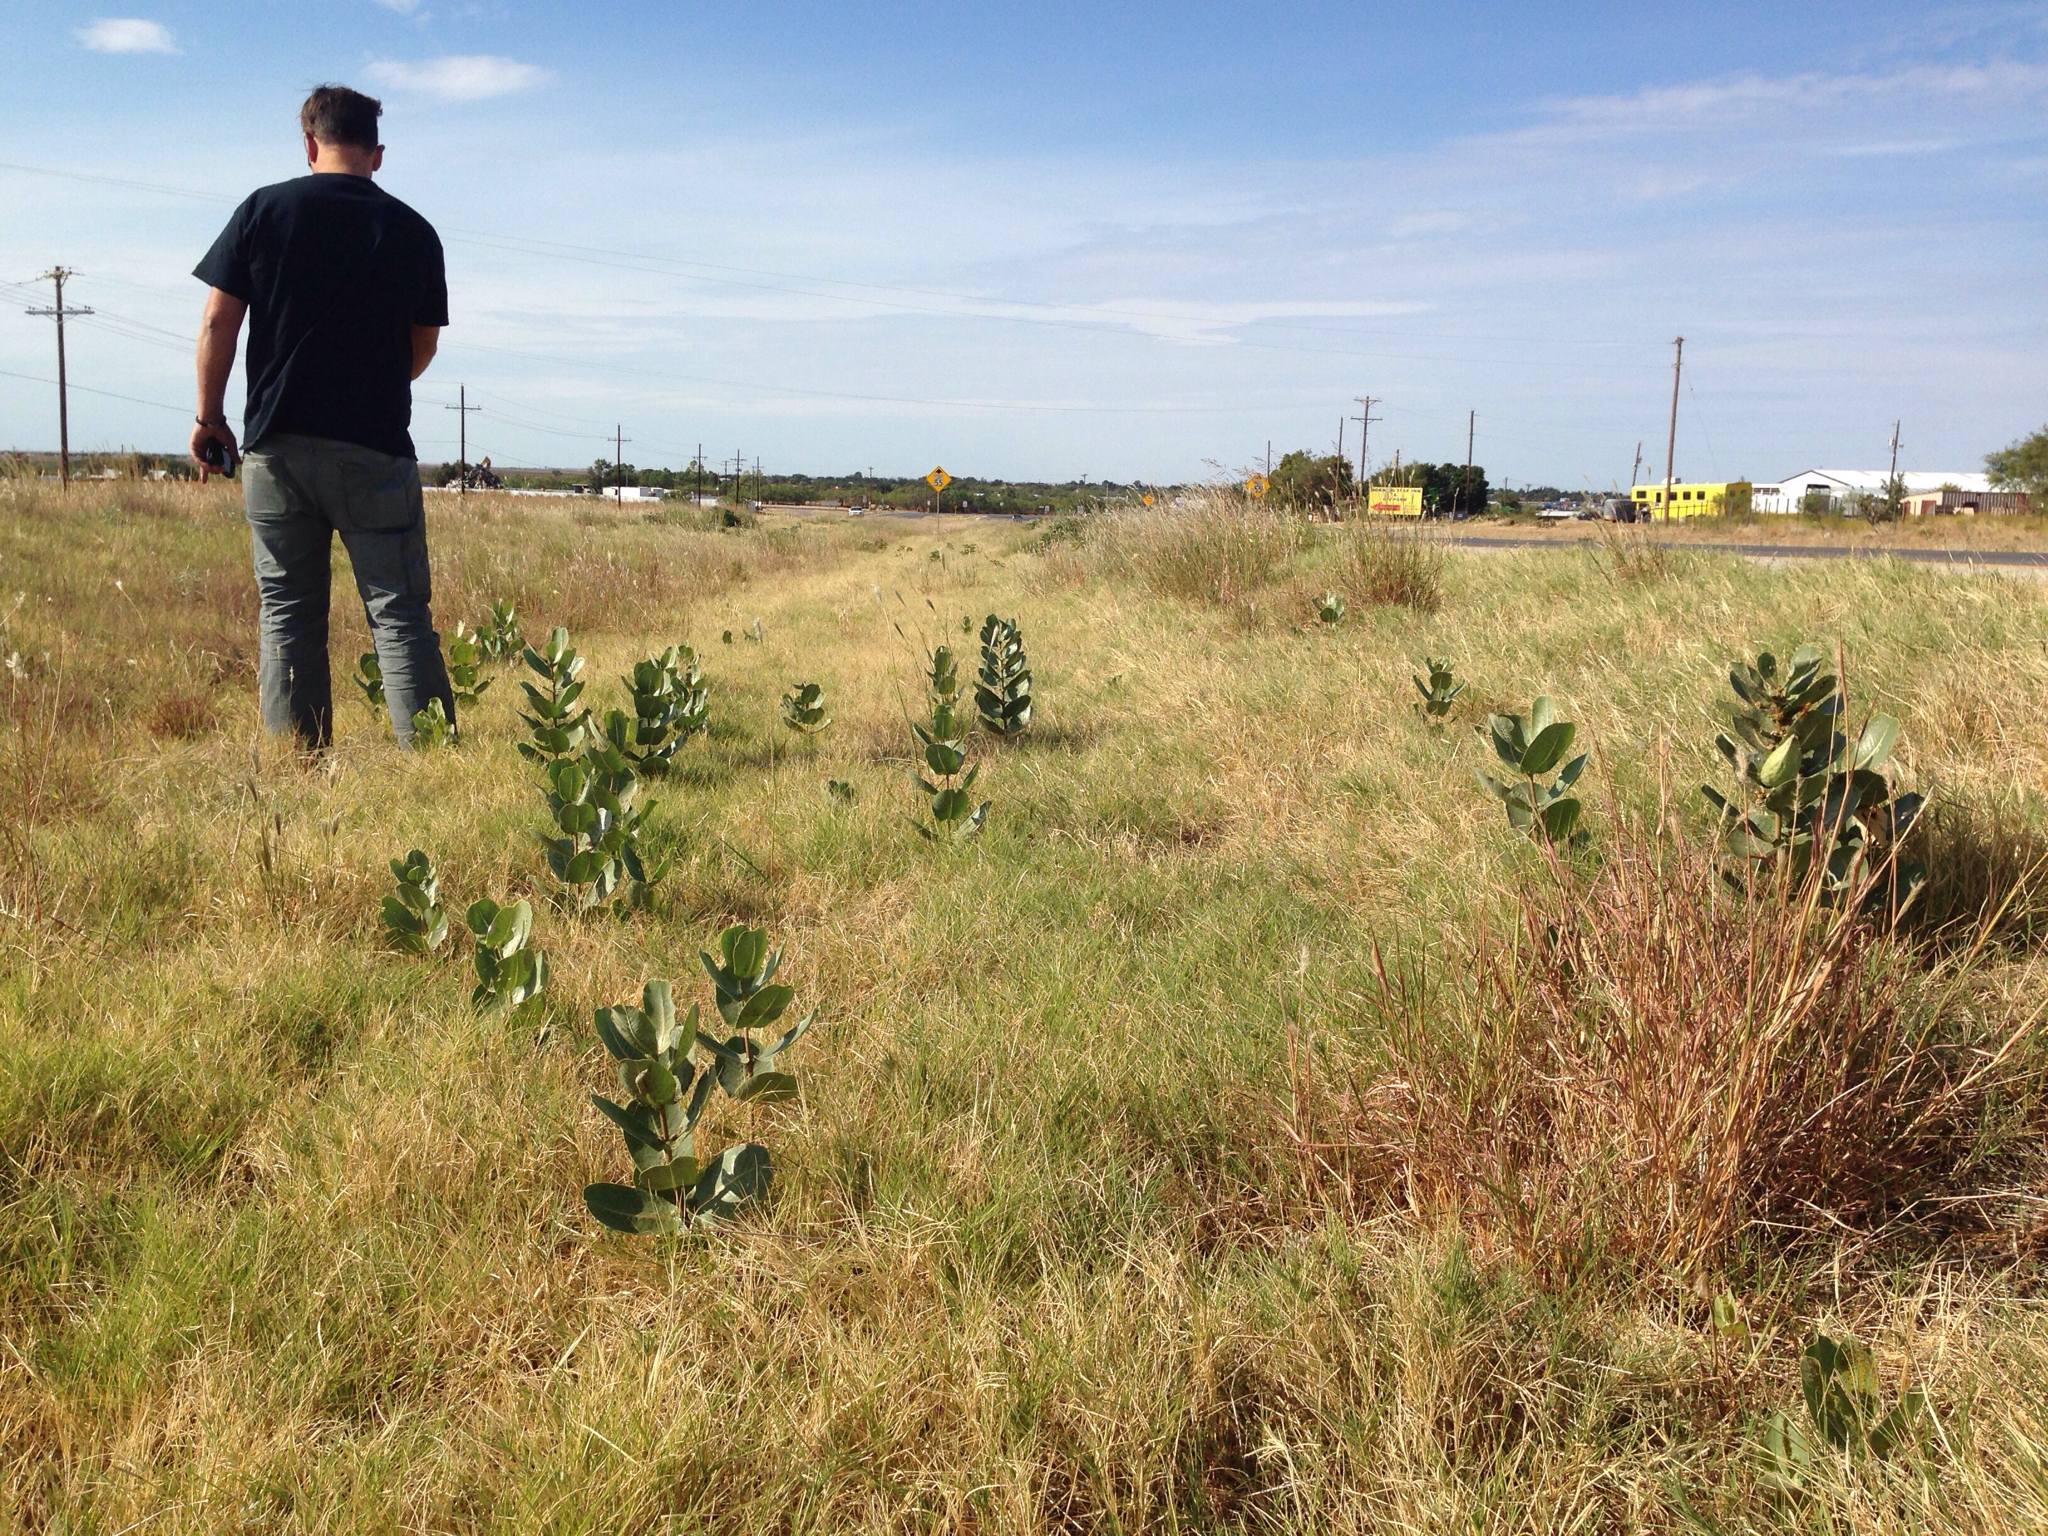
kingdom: Plantae
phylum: Tracheophyta
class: Magnoliopsida
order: Gentianales
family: Apocynaceae
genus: Asclepias
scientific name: Asclepias latifolia
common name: Broadleaf milkweed
